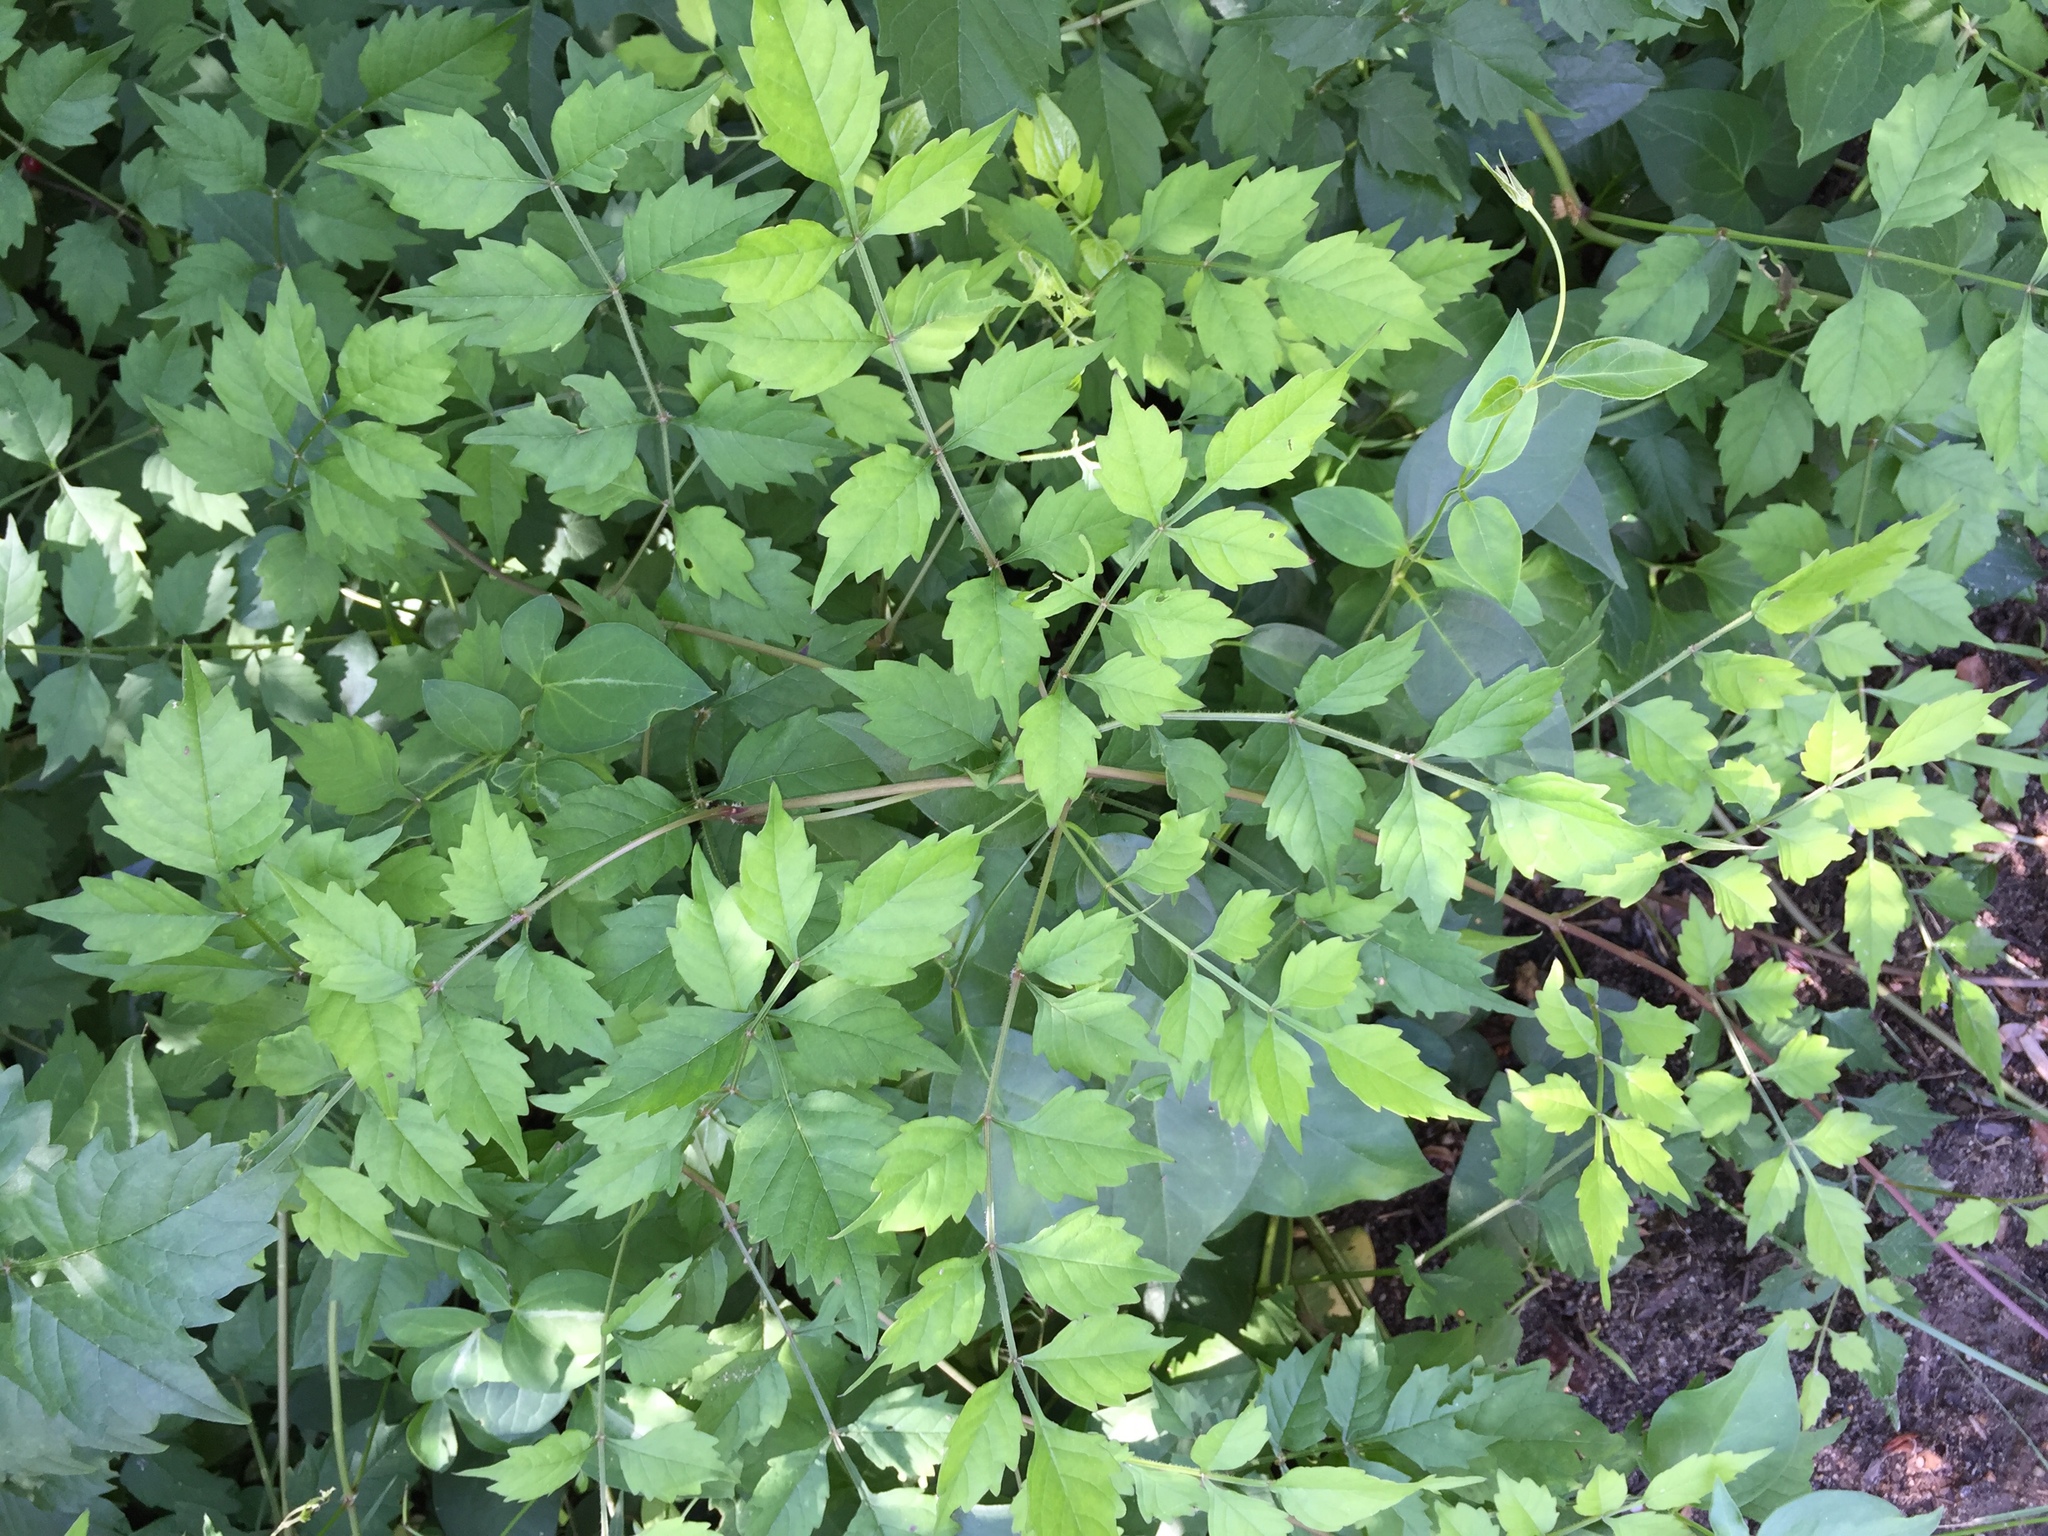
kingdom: Plantae
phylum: Tracheophyta
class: Magnoliopsida
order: Lamiales
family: Bignoniaceae
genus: Campsis
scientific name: Campsis radicans
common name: Trumpet-creeper
